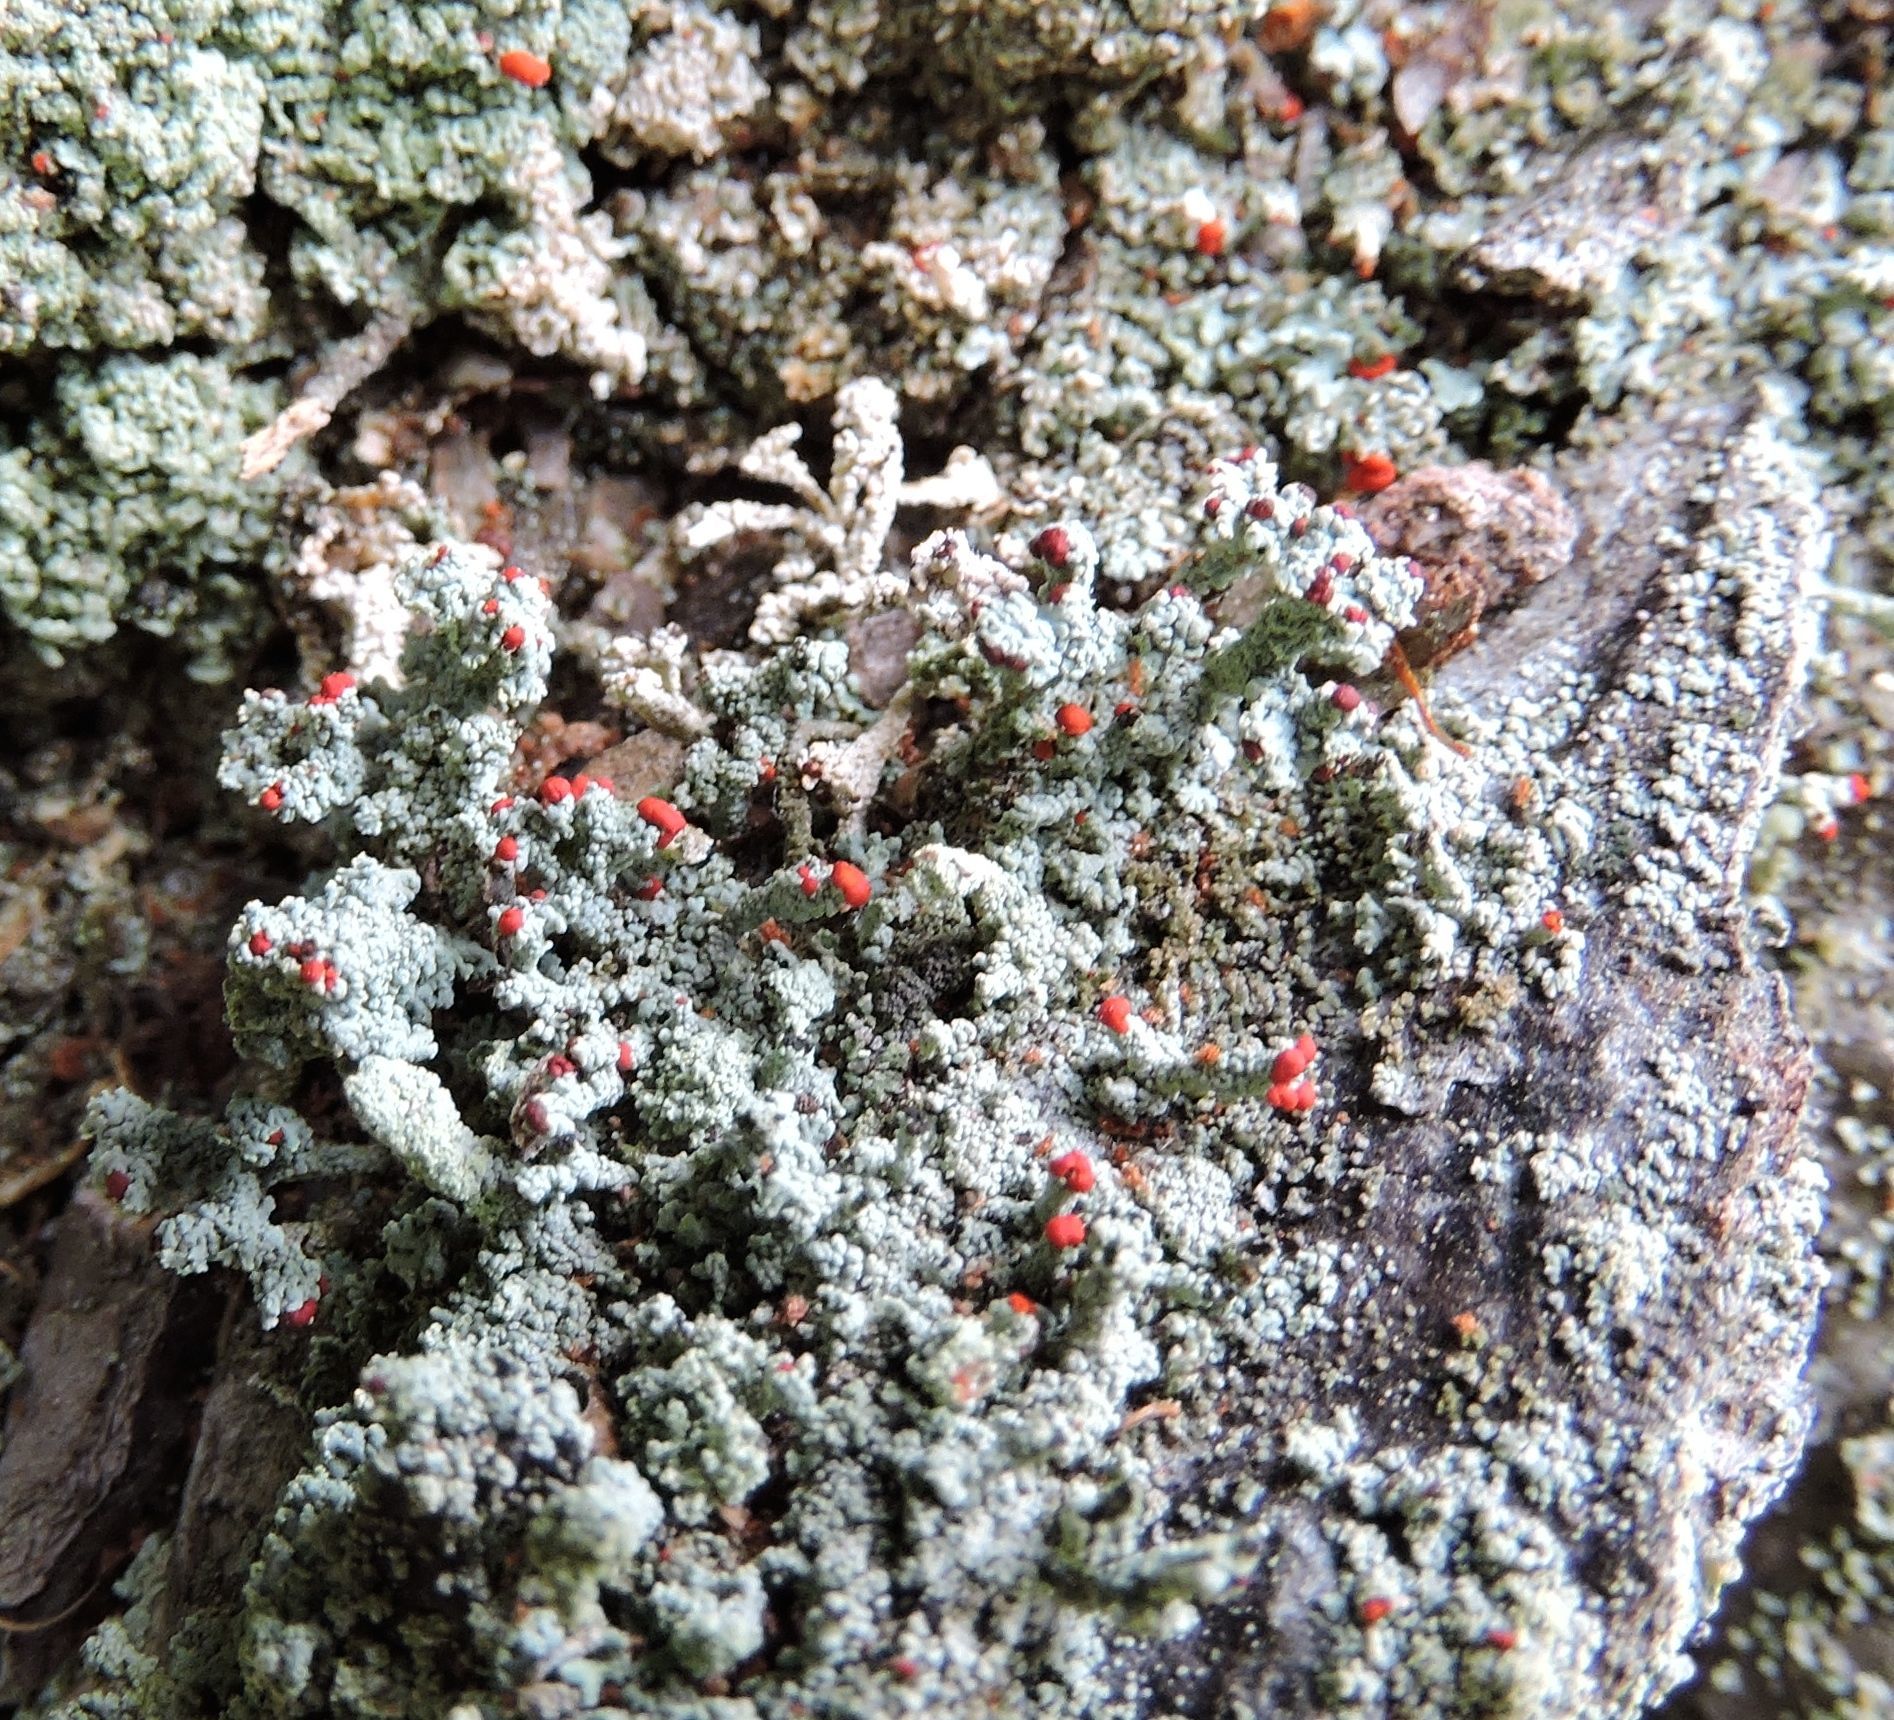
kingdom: Fungi
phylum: Ascomycota
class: Lecanoromycetes
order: Lecanorales
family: Cladoniaceae
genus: Cladonia
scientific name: Cladonia cristatella
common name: British soldier lichen
